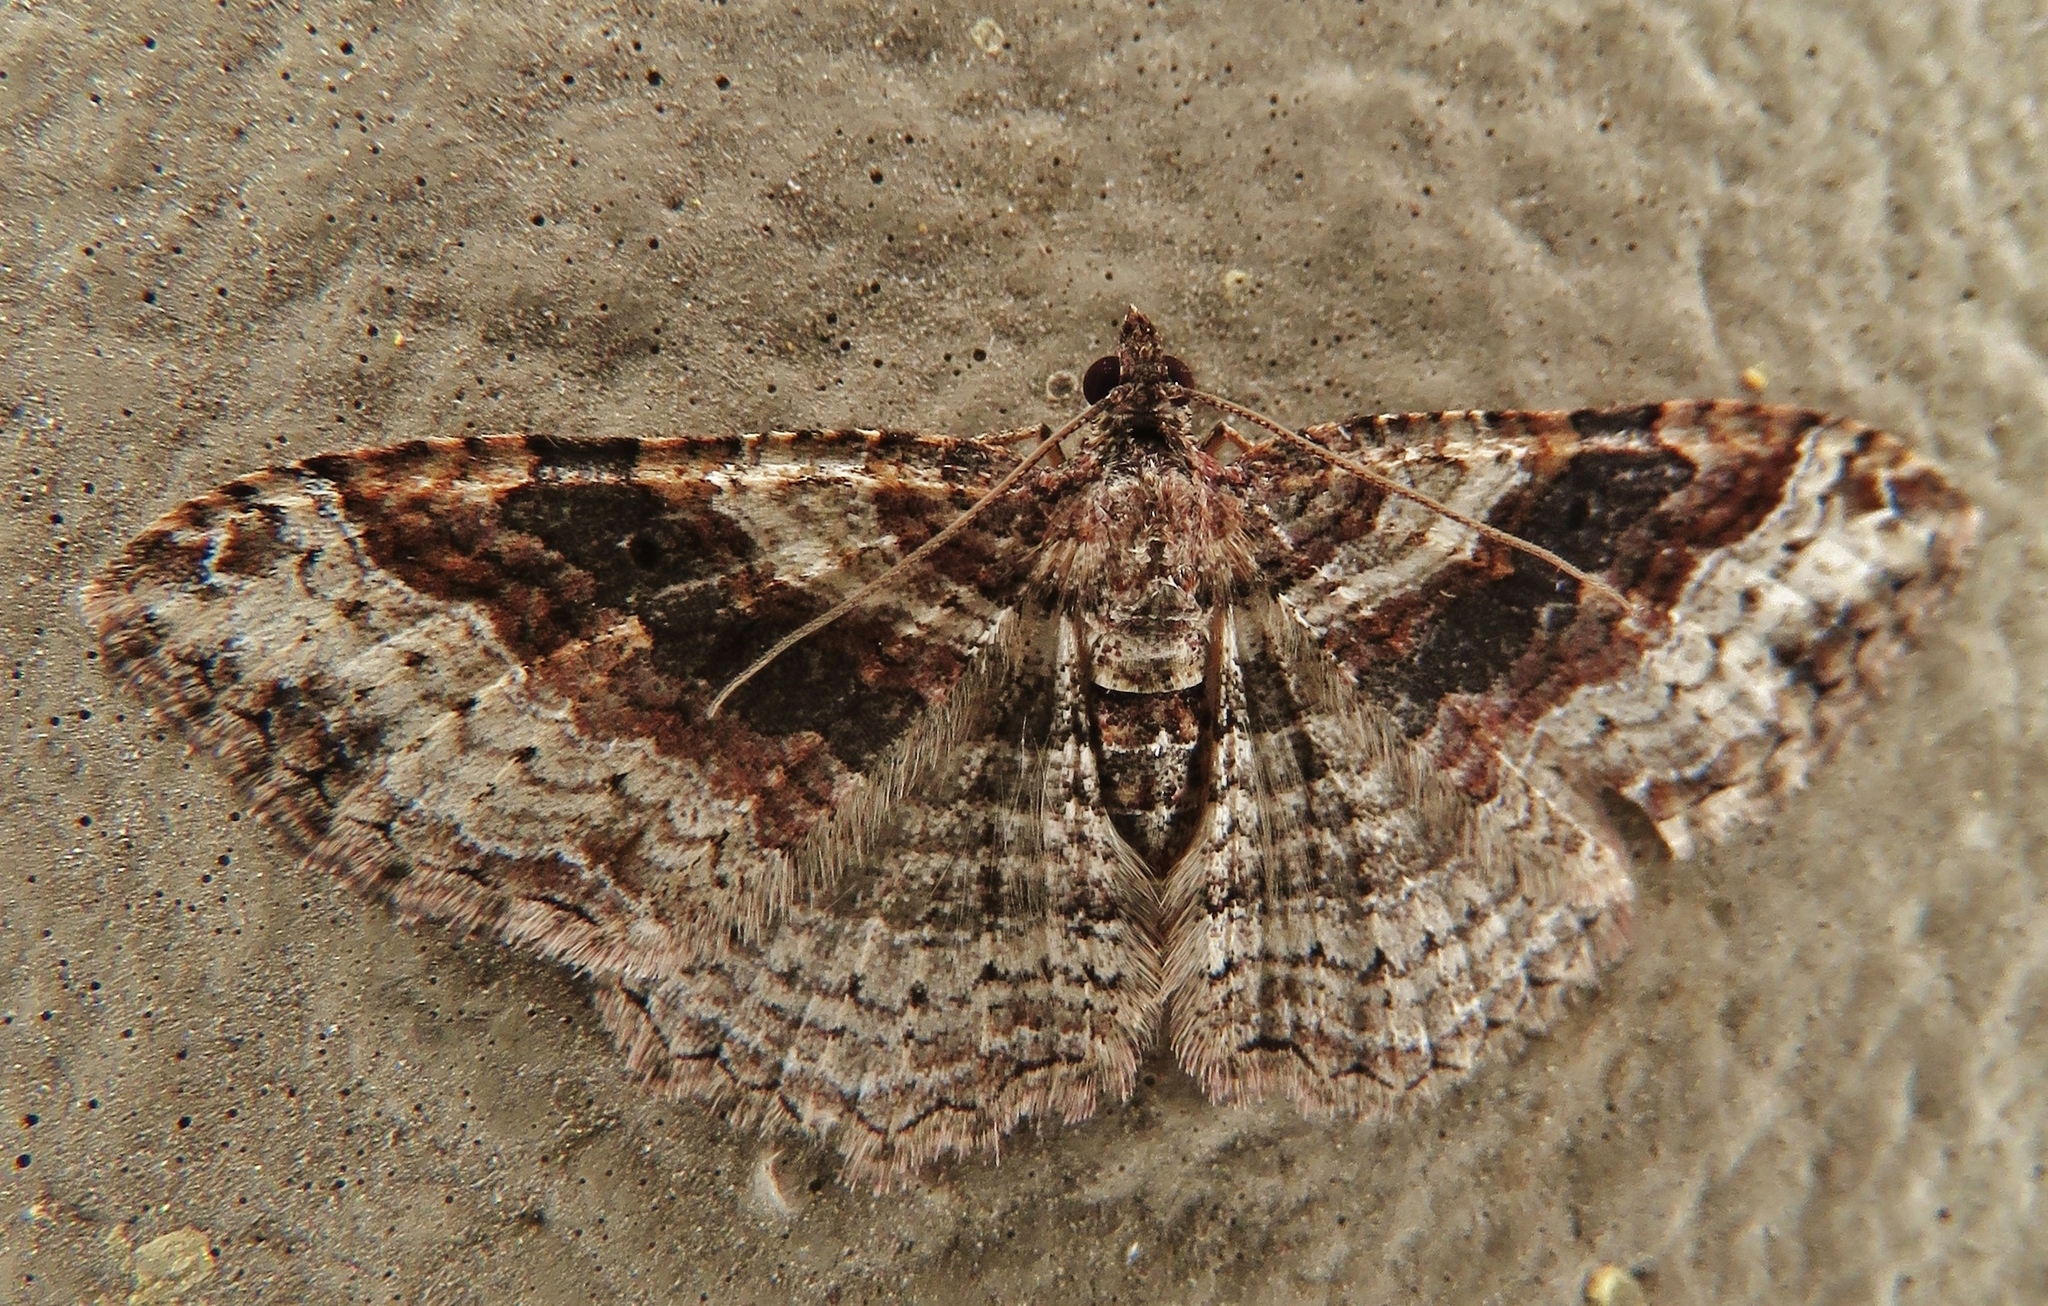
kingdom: Animalia
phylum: Arthropoda
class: Insecta
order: Lepidoptera
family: Geometridae
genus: Costaconvexa
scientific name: Costaconvexa centrostrigaria
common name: Bent-line carpet
